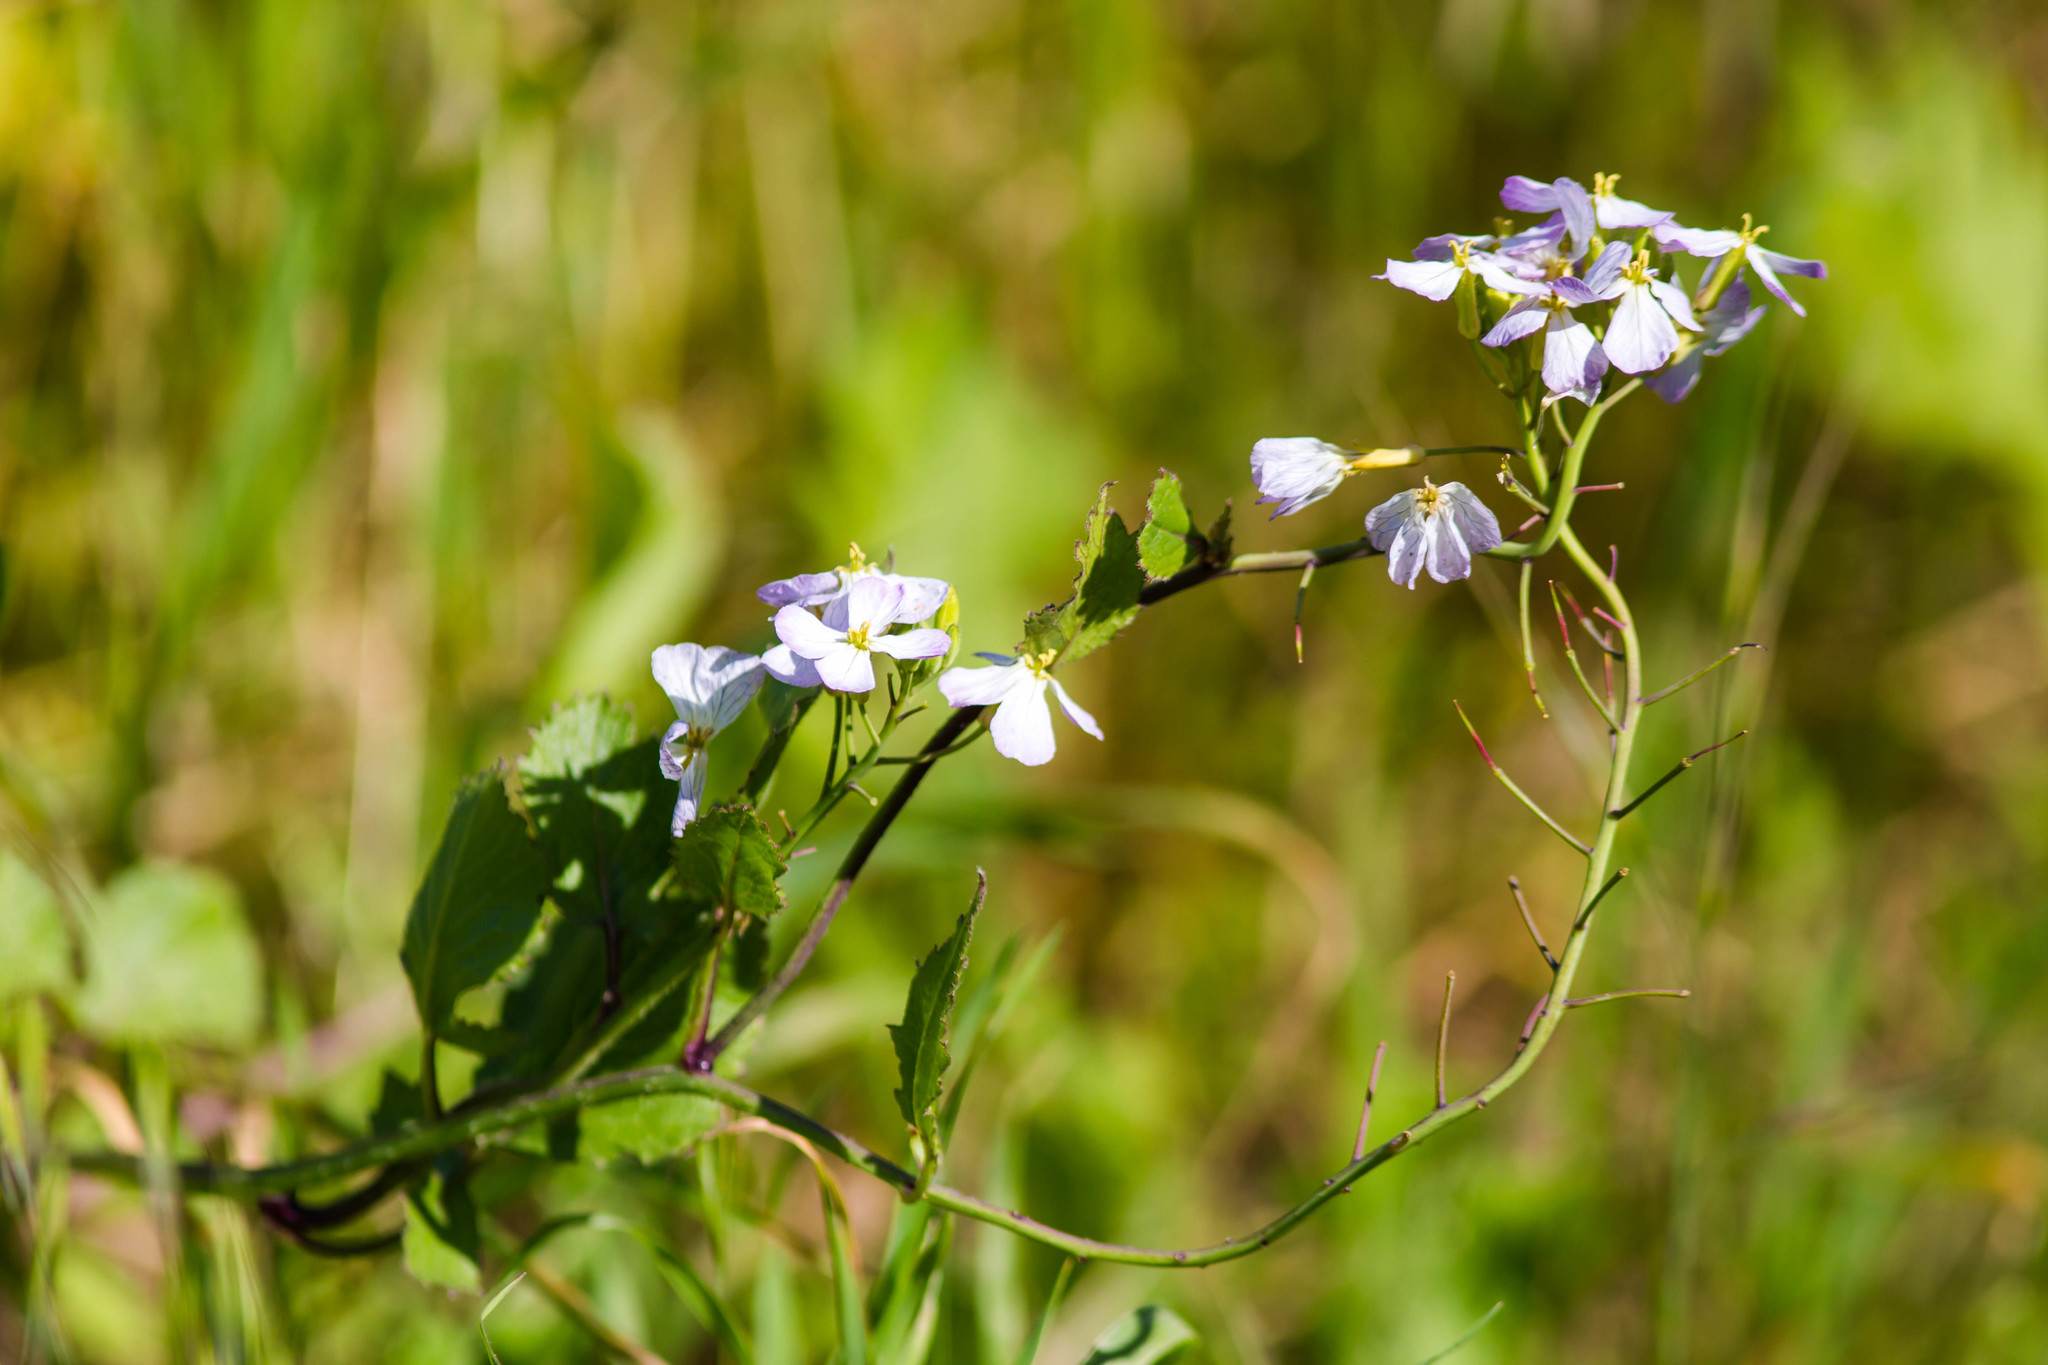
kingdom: Plantae
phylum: Tracheophyta
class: Magnoliopsida
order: Brassicales
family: Brassicaceae
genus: Raphanus
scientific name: Raphanus sativus
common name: Cultivated radish
